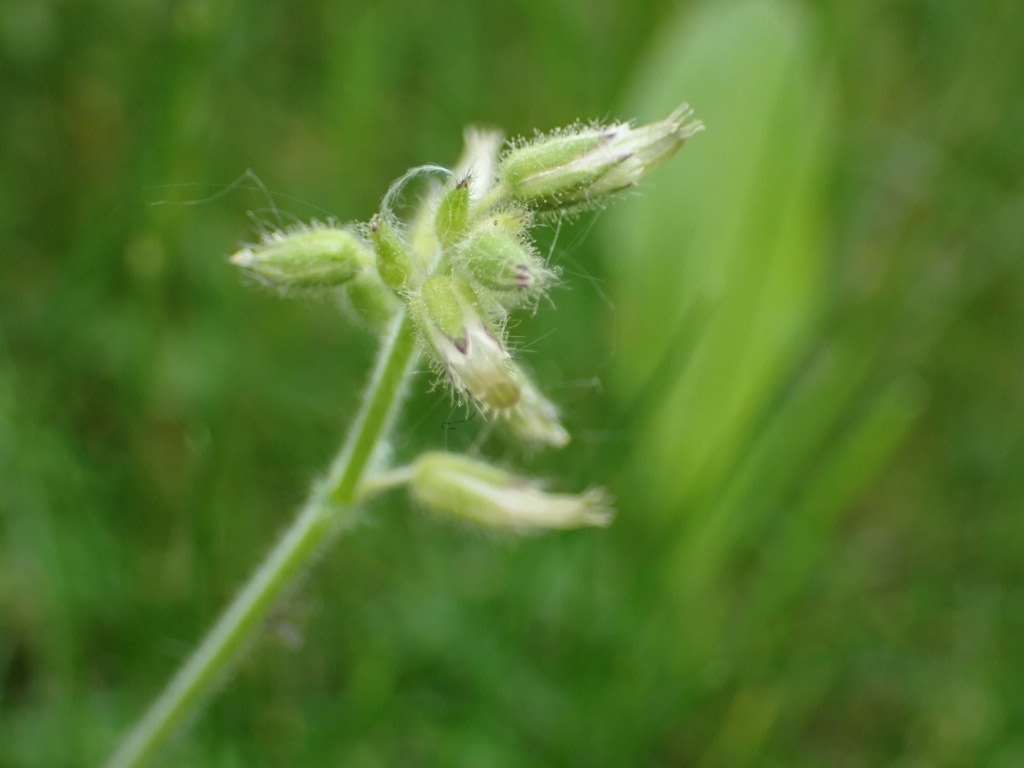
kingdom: Plantae
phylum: Tracheophyta
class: Magnoliopsida
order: Caryophyllales
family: Caryophyllaceae
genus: Cerastium
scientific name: Cerastium glomeratum
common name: Sticky chickweed
